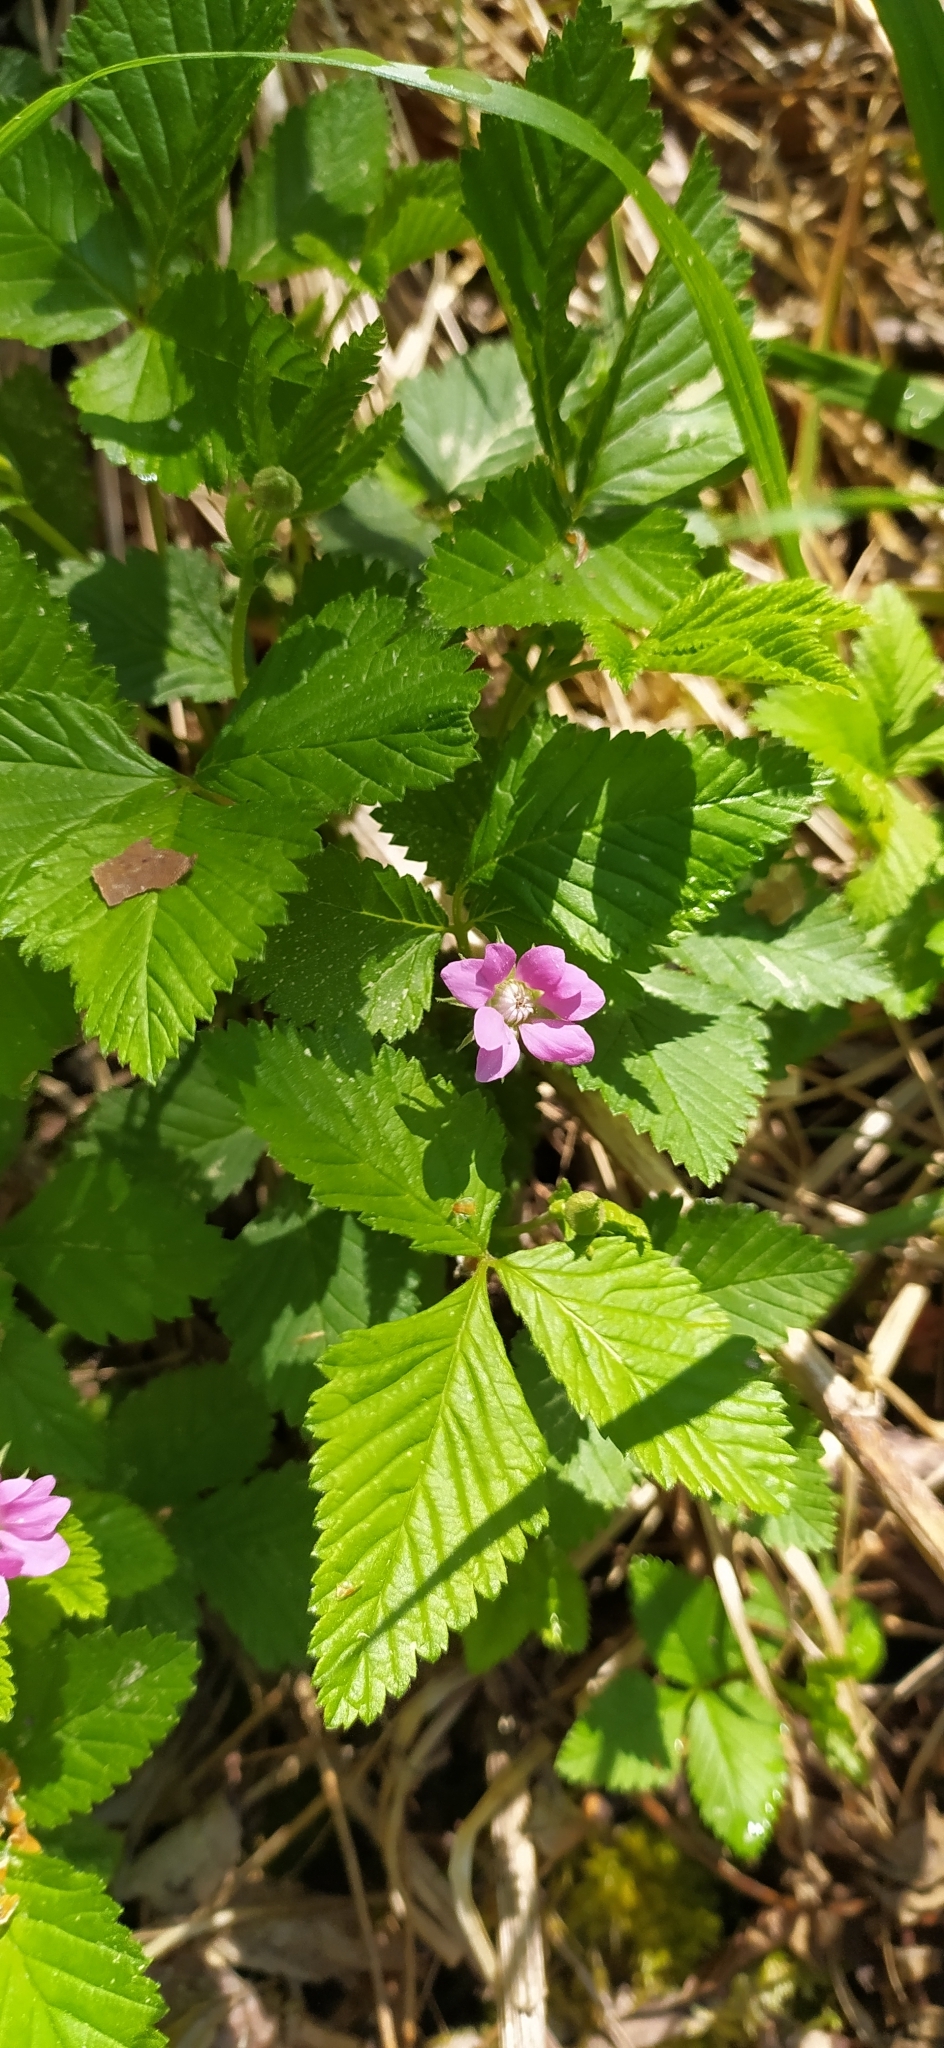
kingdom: Plantae
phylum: Tracheophyta
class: Magnoliopsida
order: Rosales
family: Rosaceae
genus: Rubus
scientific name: Rubus arcticus
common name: Arctic bramble
